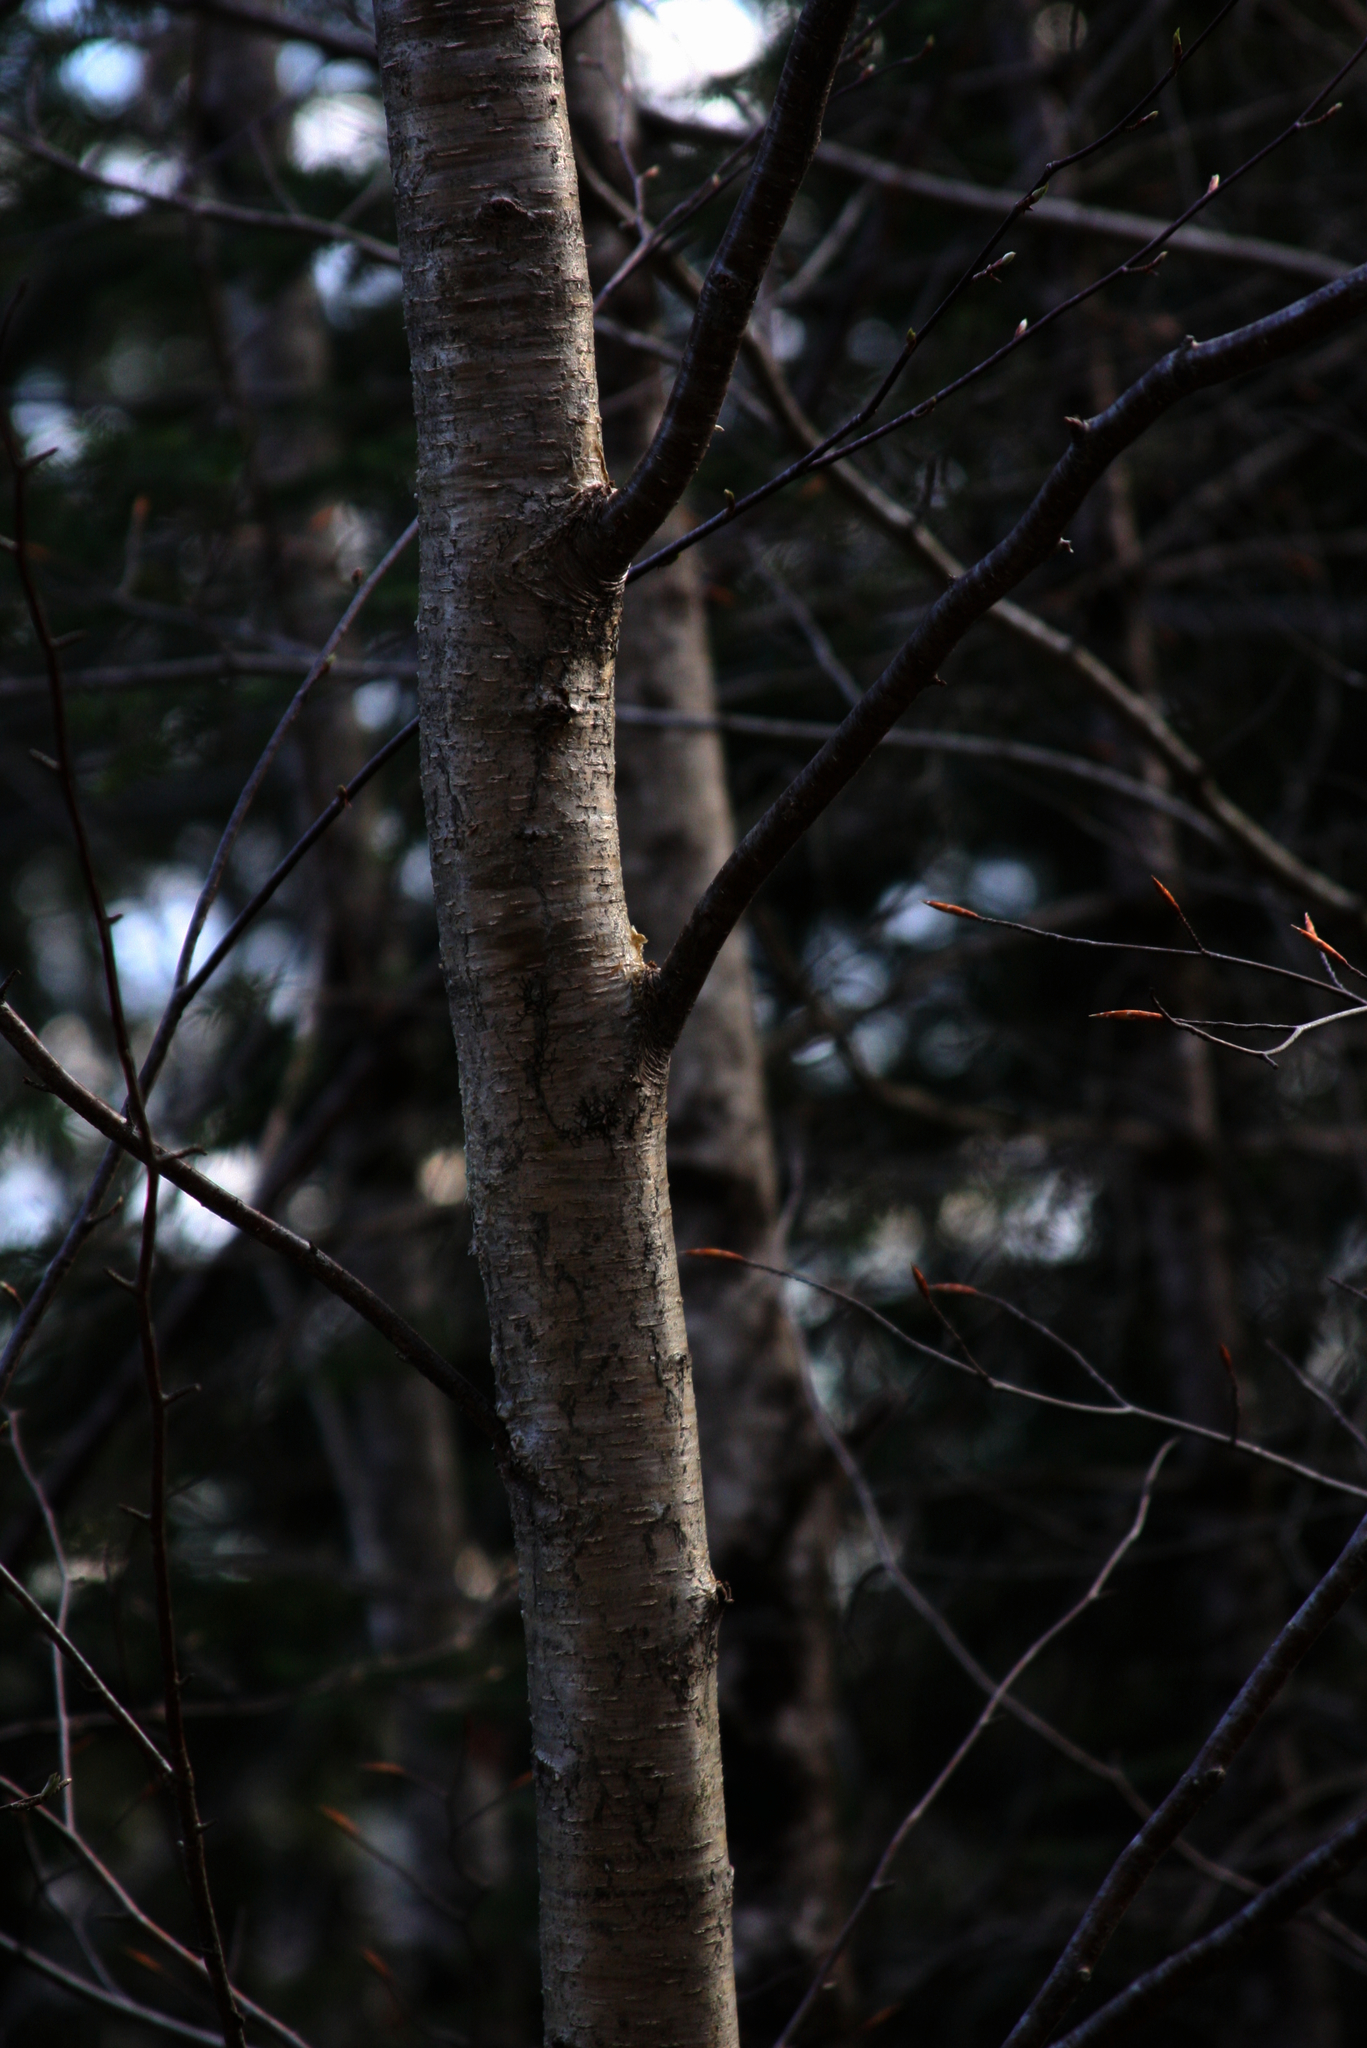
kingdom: Plantae
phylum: Tracheophyta
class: Magnoliopsida
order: Fagales
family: Betulaceae
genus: Betula
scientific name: Betula alleghaniensis
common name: Yellow birch
